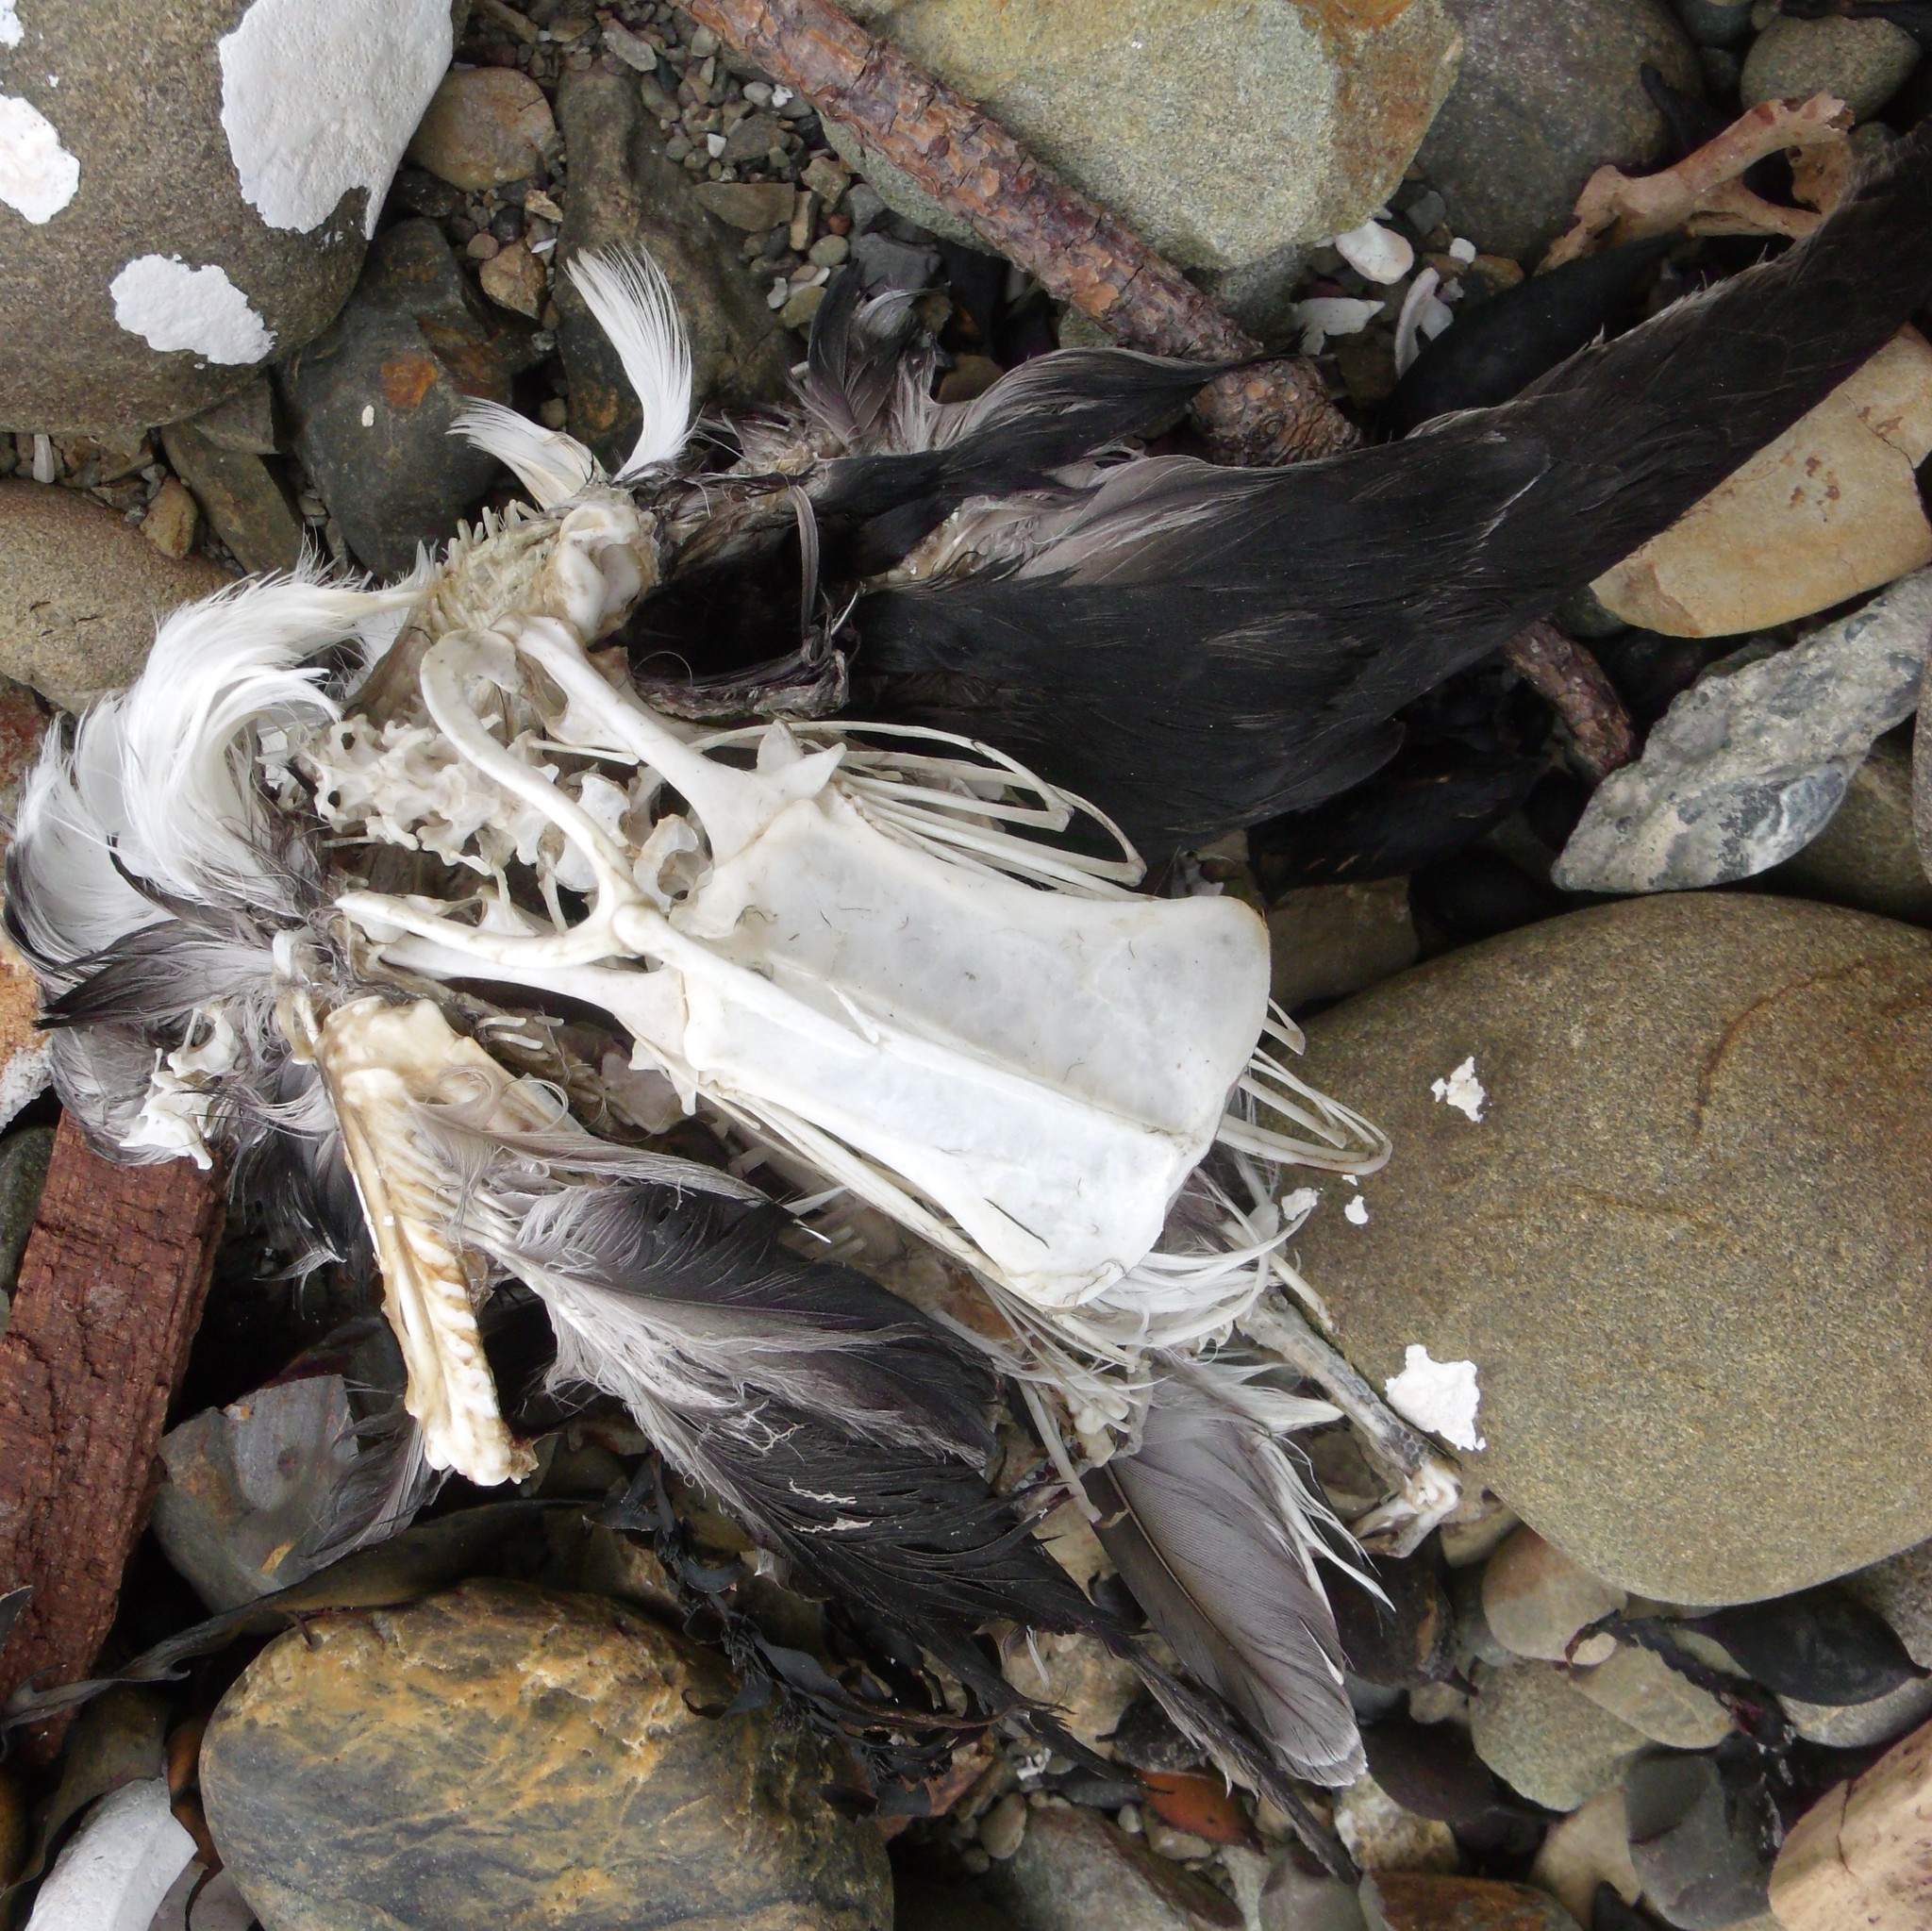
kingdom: Animalia
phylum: Chordata
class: Aves
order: Procellariiformes
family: Pelecanoididae
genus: Pelecanoides
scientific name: Pelecanoides urinatrix
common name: Common diving-petrel
